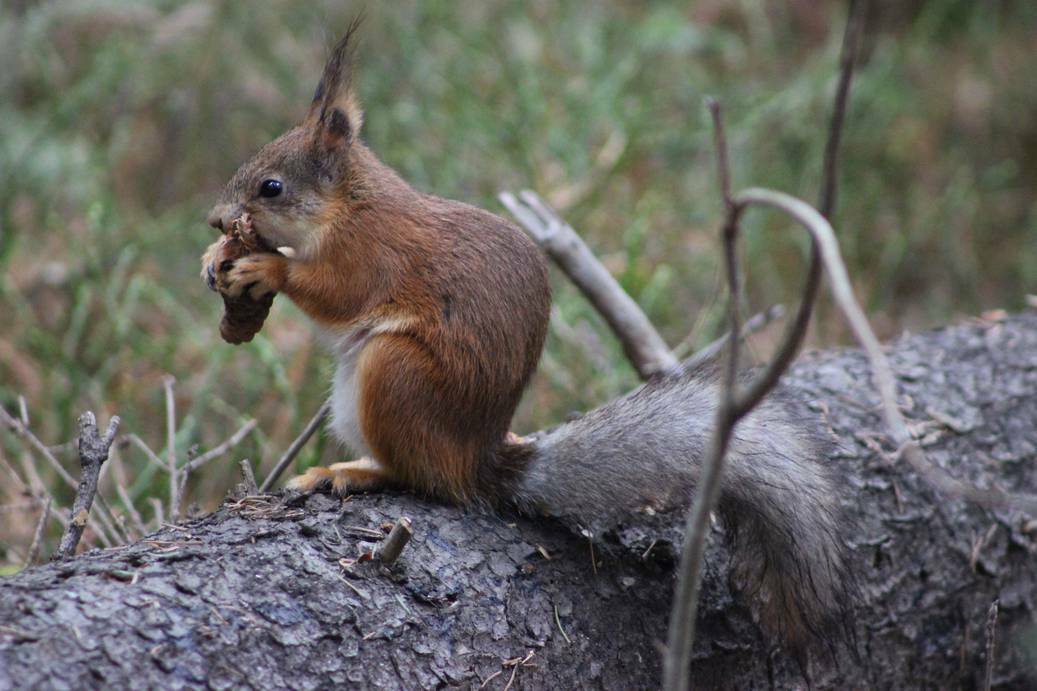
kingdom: Animalia
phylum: Chordata
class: Mammalia
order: Rodentia
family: Sciuridae
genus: Sciurus
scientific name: Sciurus vulgaris
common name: Eurasian red squirrel
